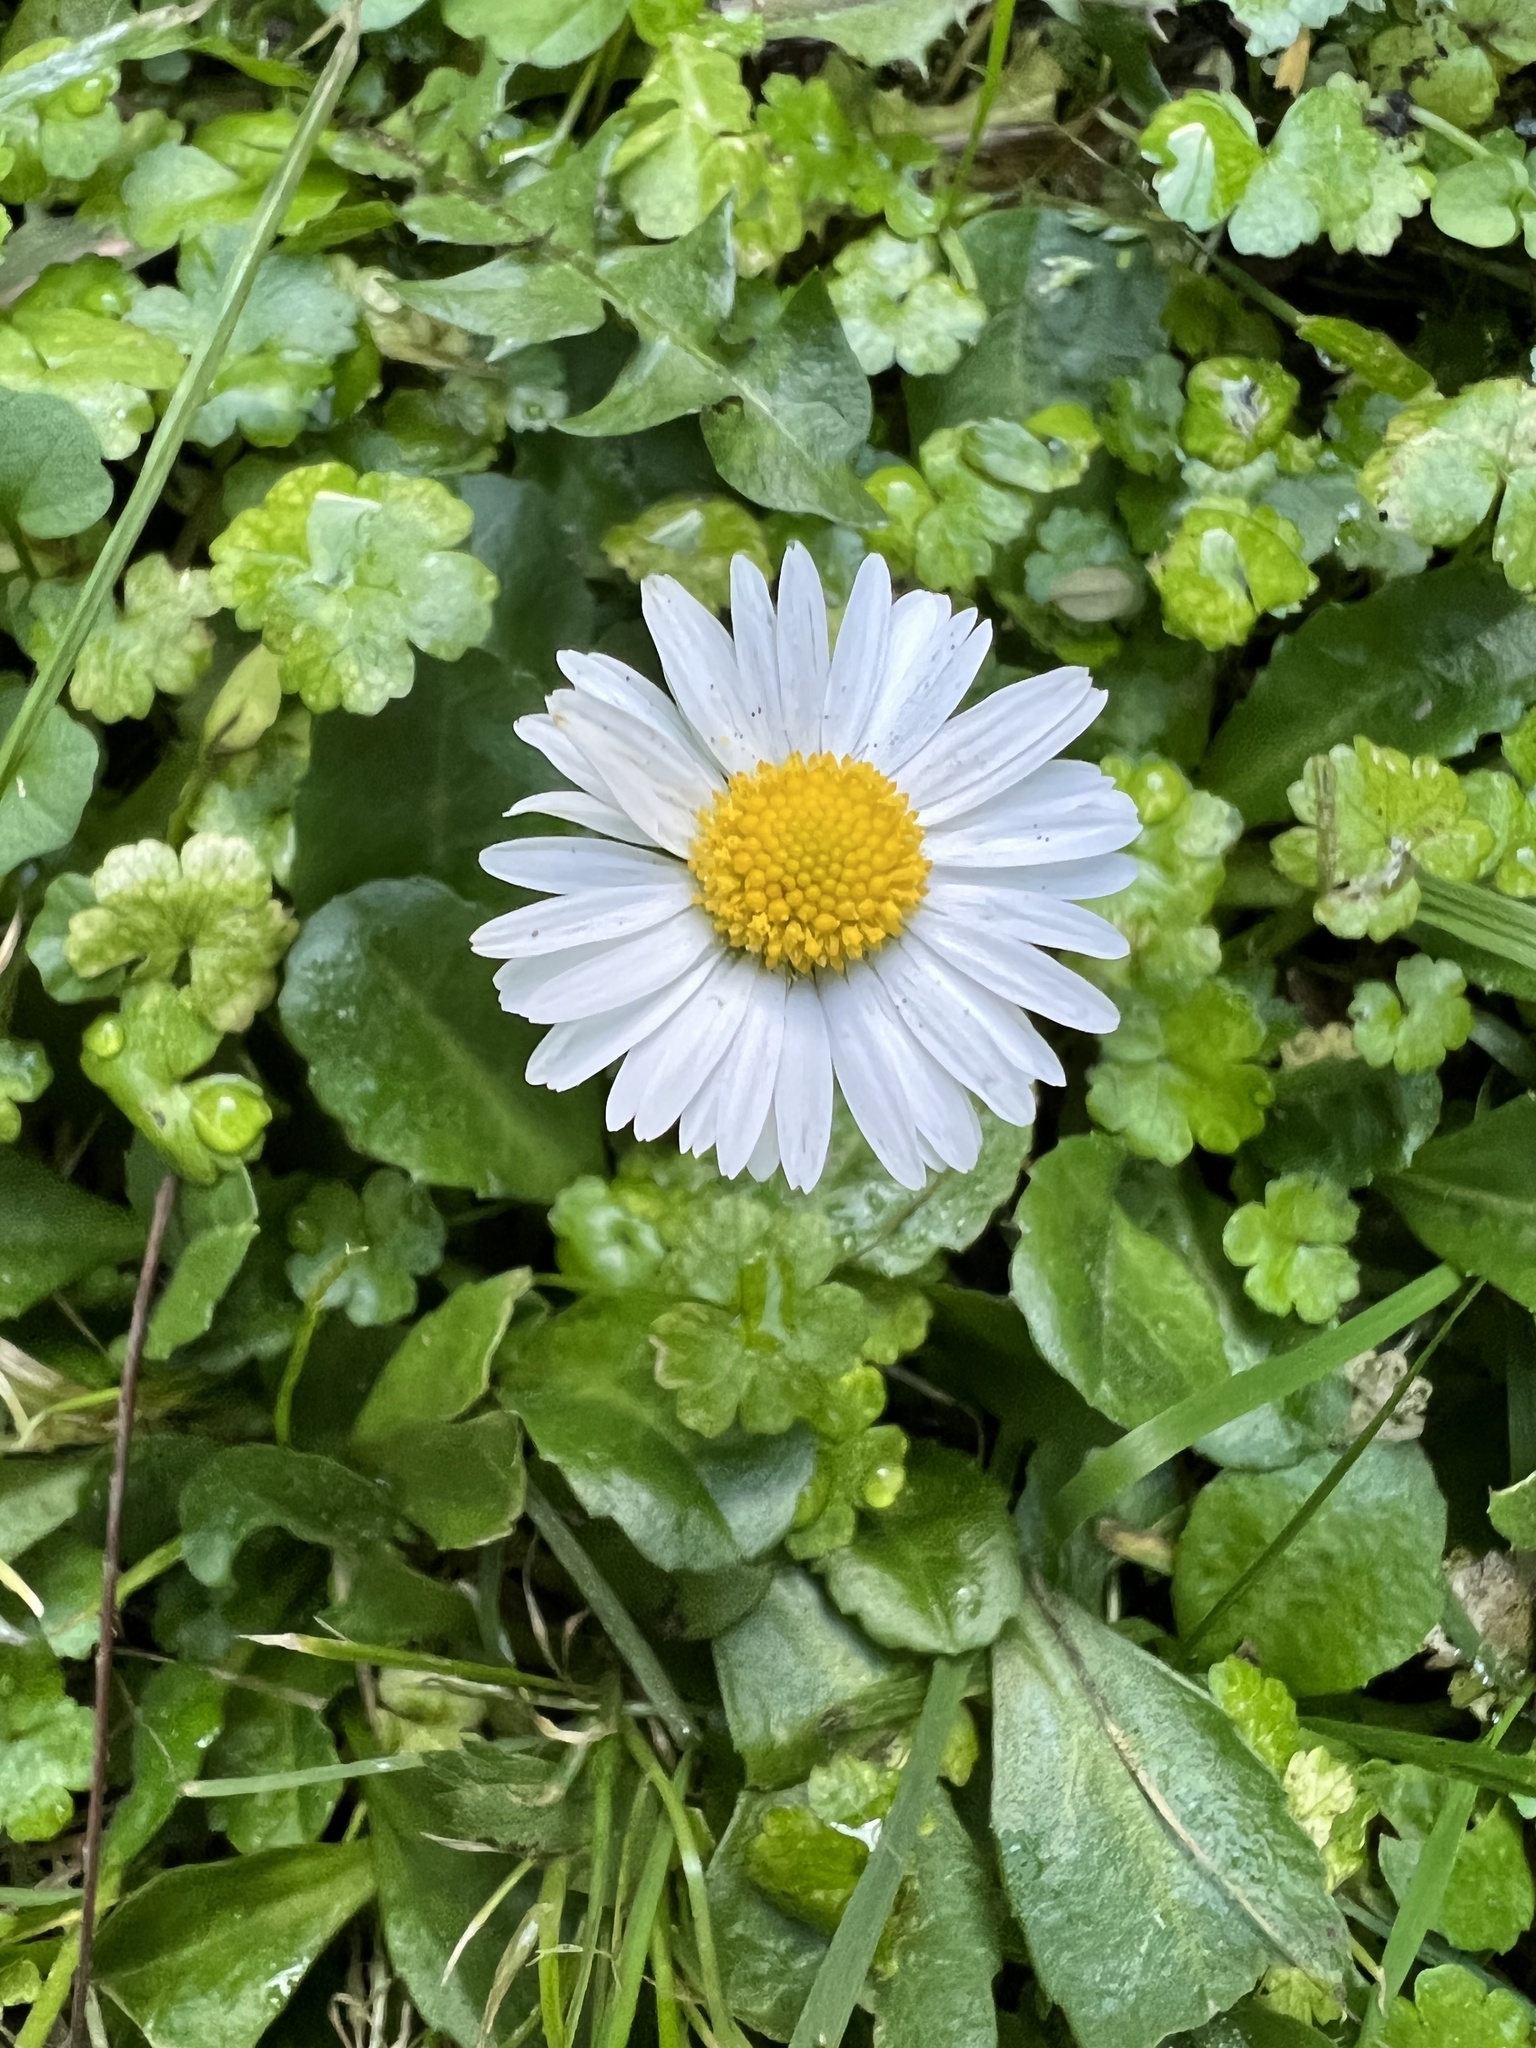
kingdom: Plantae
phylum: Tracheophyta
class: Magnoliopsida
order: Asterales
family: Asteraceae
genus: Bellis
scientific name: Bellis perennis
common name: Lawndaisy
